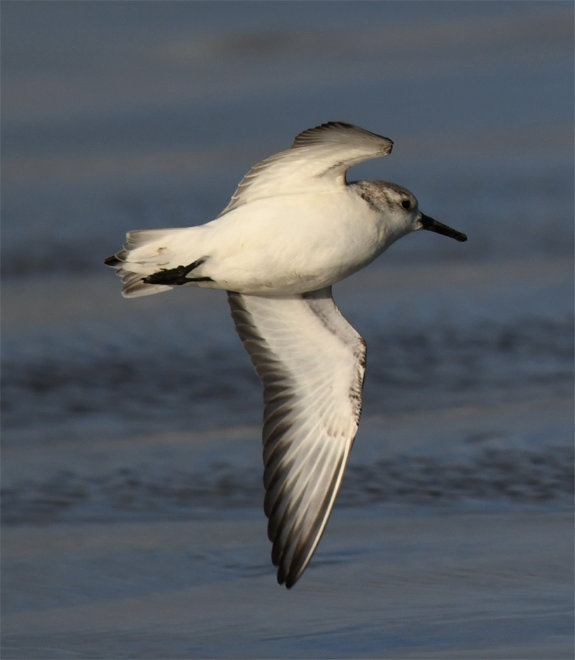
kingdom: Animalia
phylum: Chordata
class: Aves
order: Charadriiformes
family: Scolopacidae
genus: Calidris
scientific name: Calidris alba
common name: Sanderling
